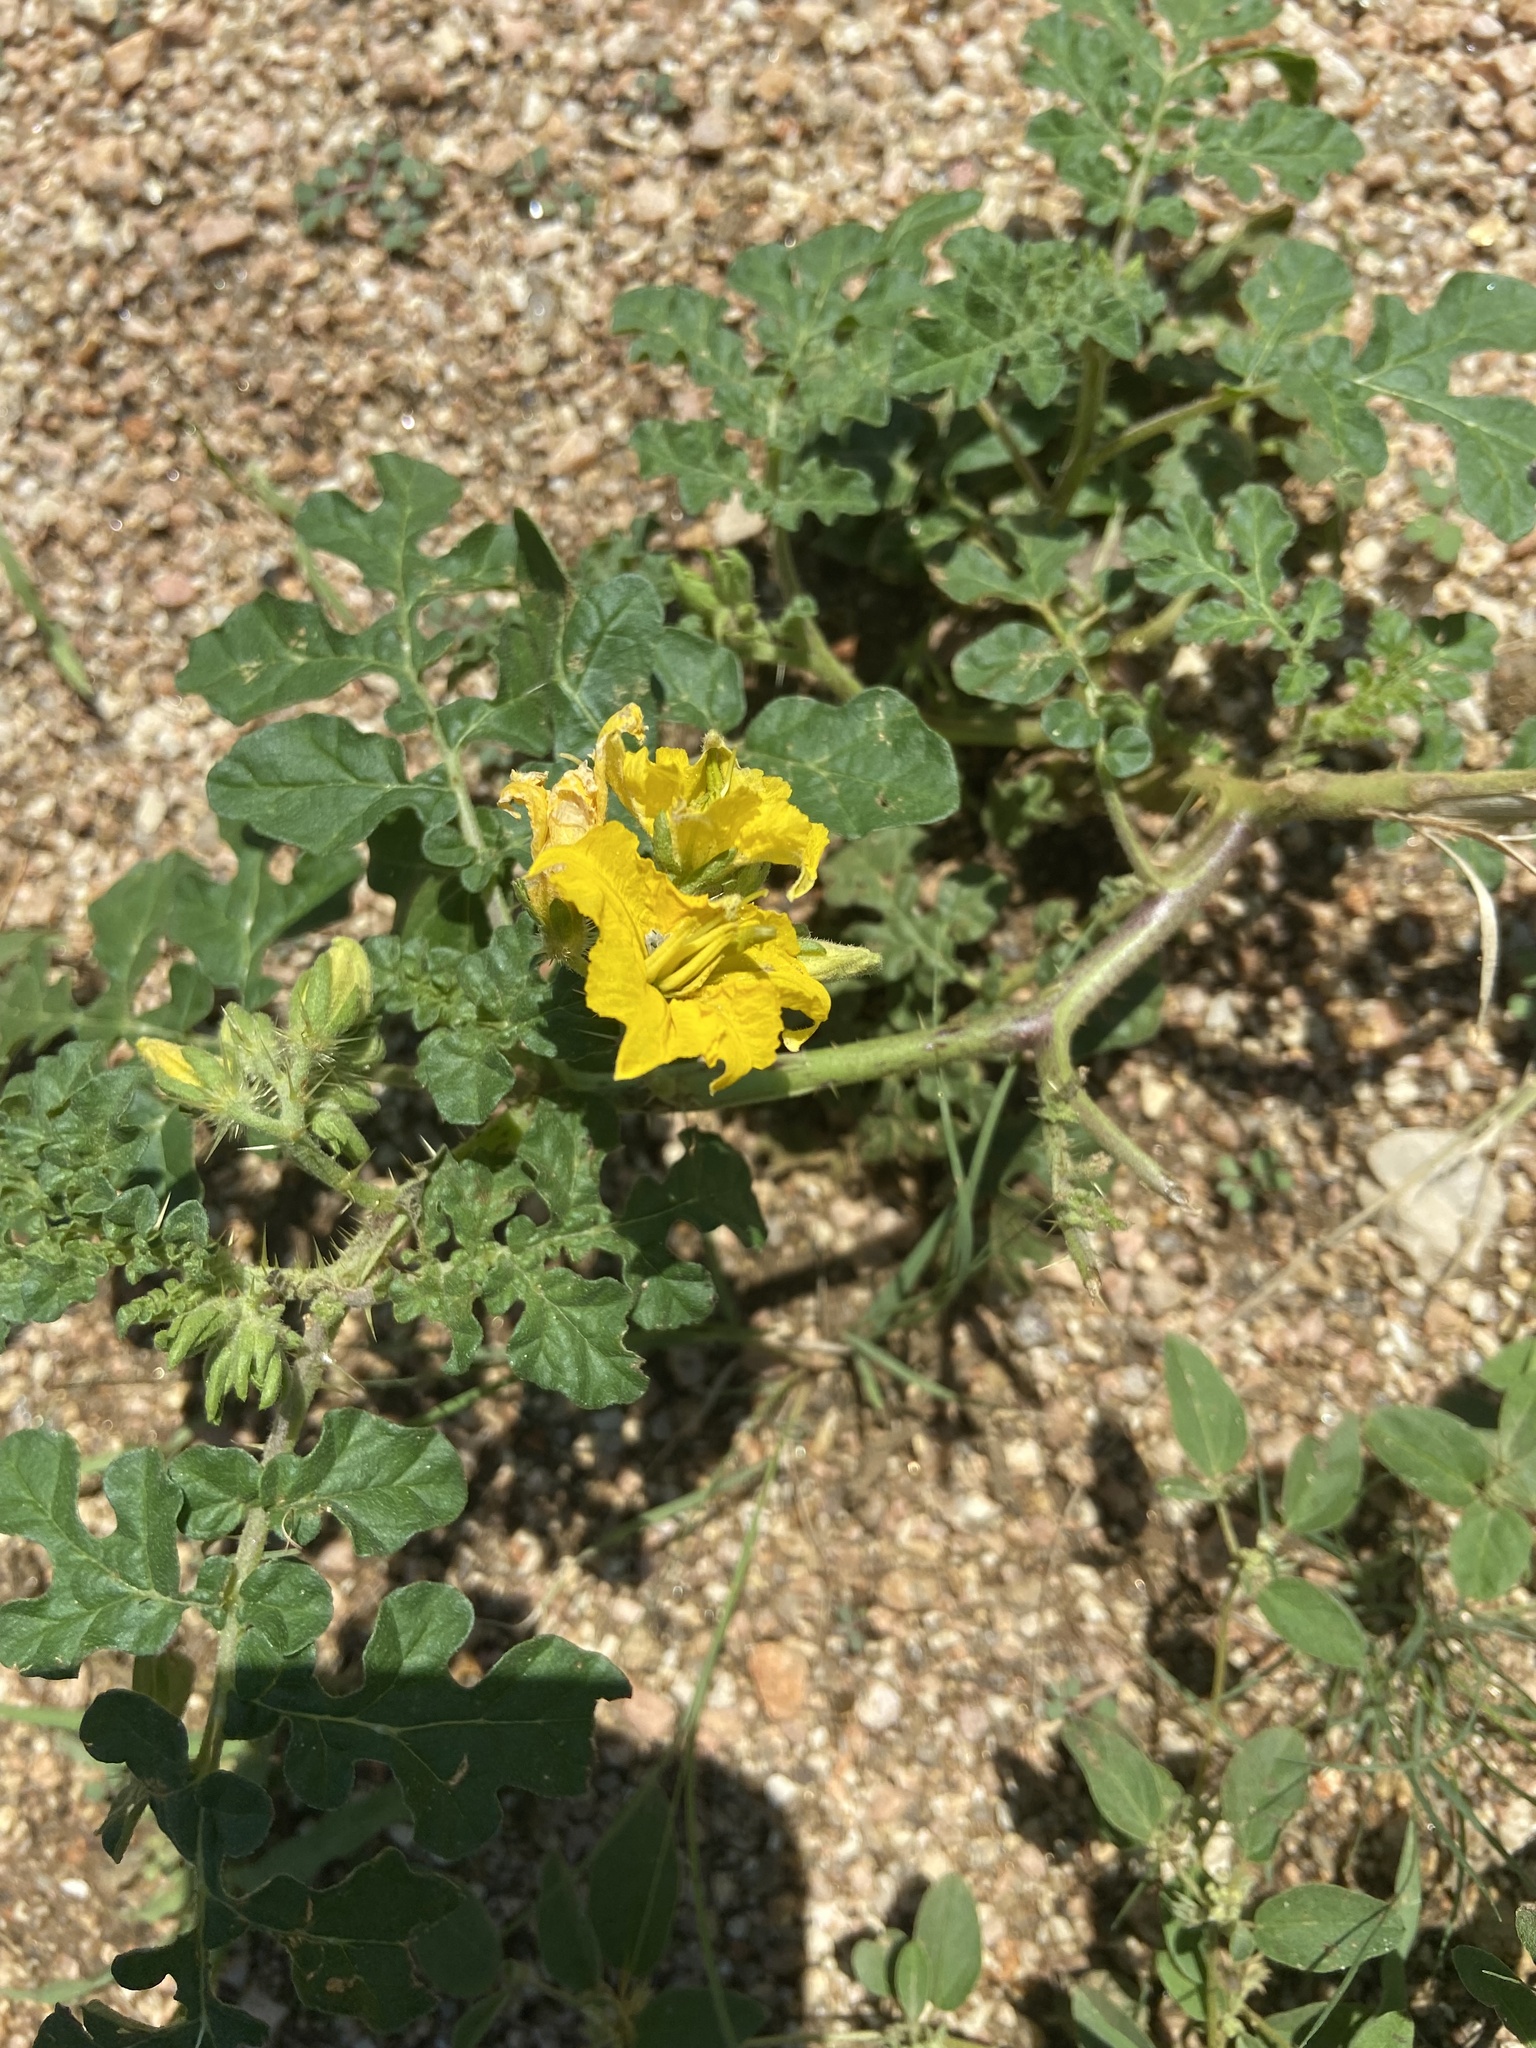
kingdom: Plantae
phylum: Tracheophyta
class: Magnoliopsida
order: Solanales
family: Solanaceae
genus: Solanum
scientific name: Solanum angustifolium
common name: Buffalobur nightshade
